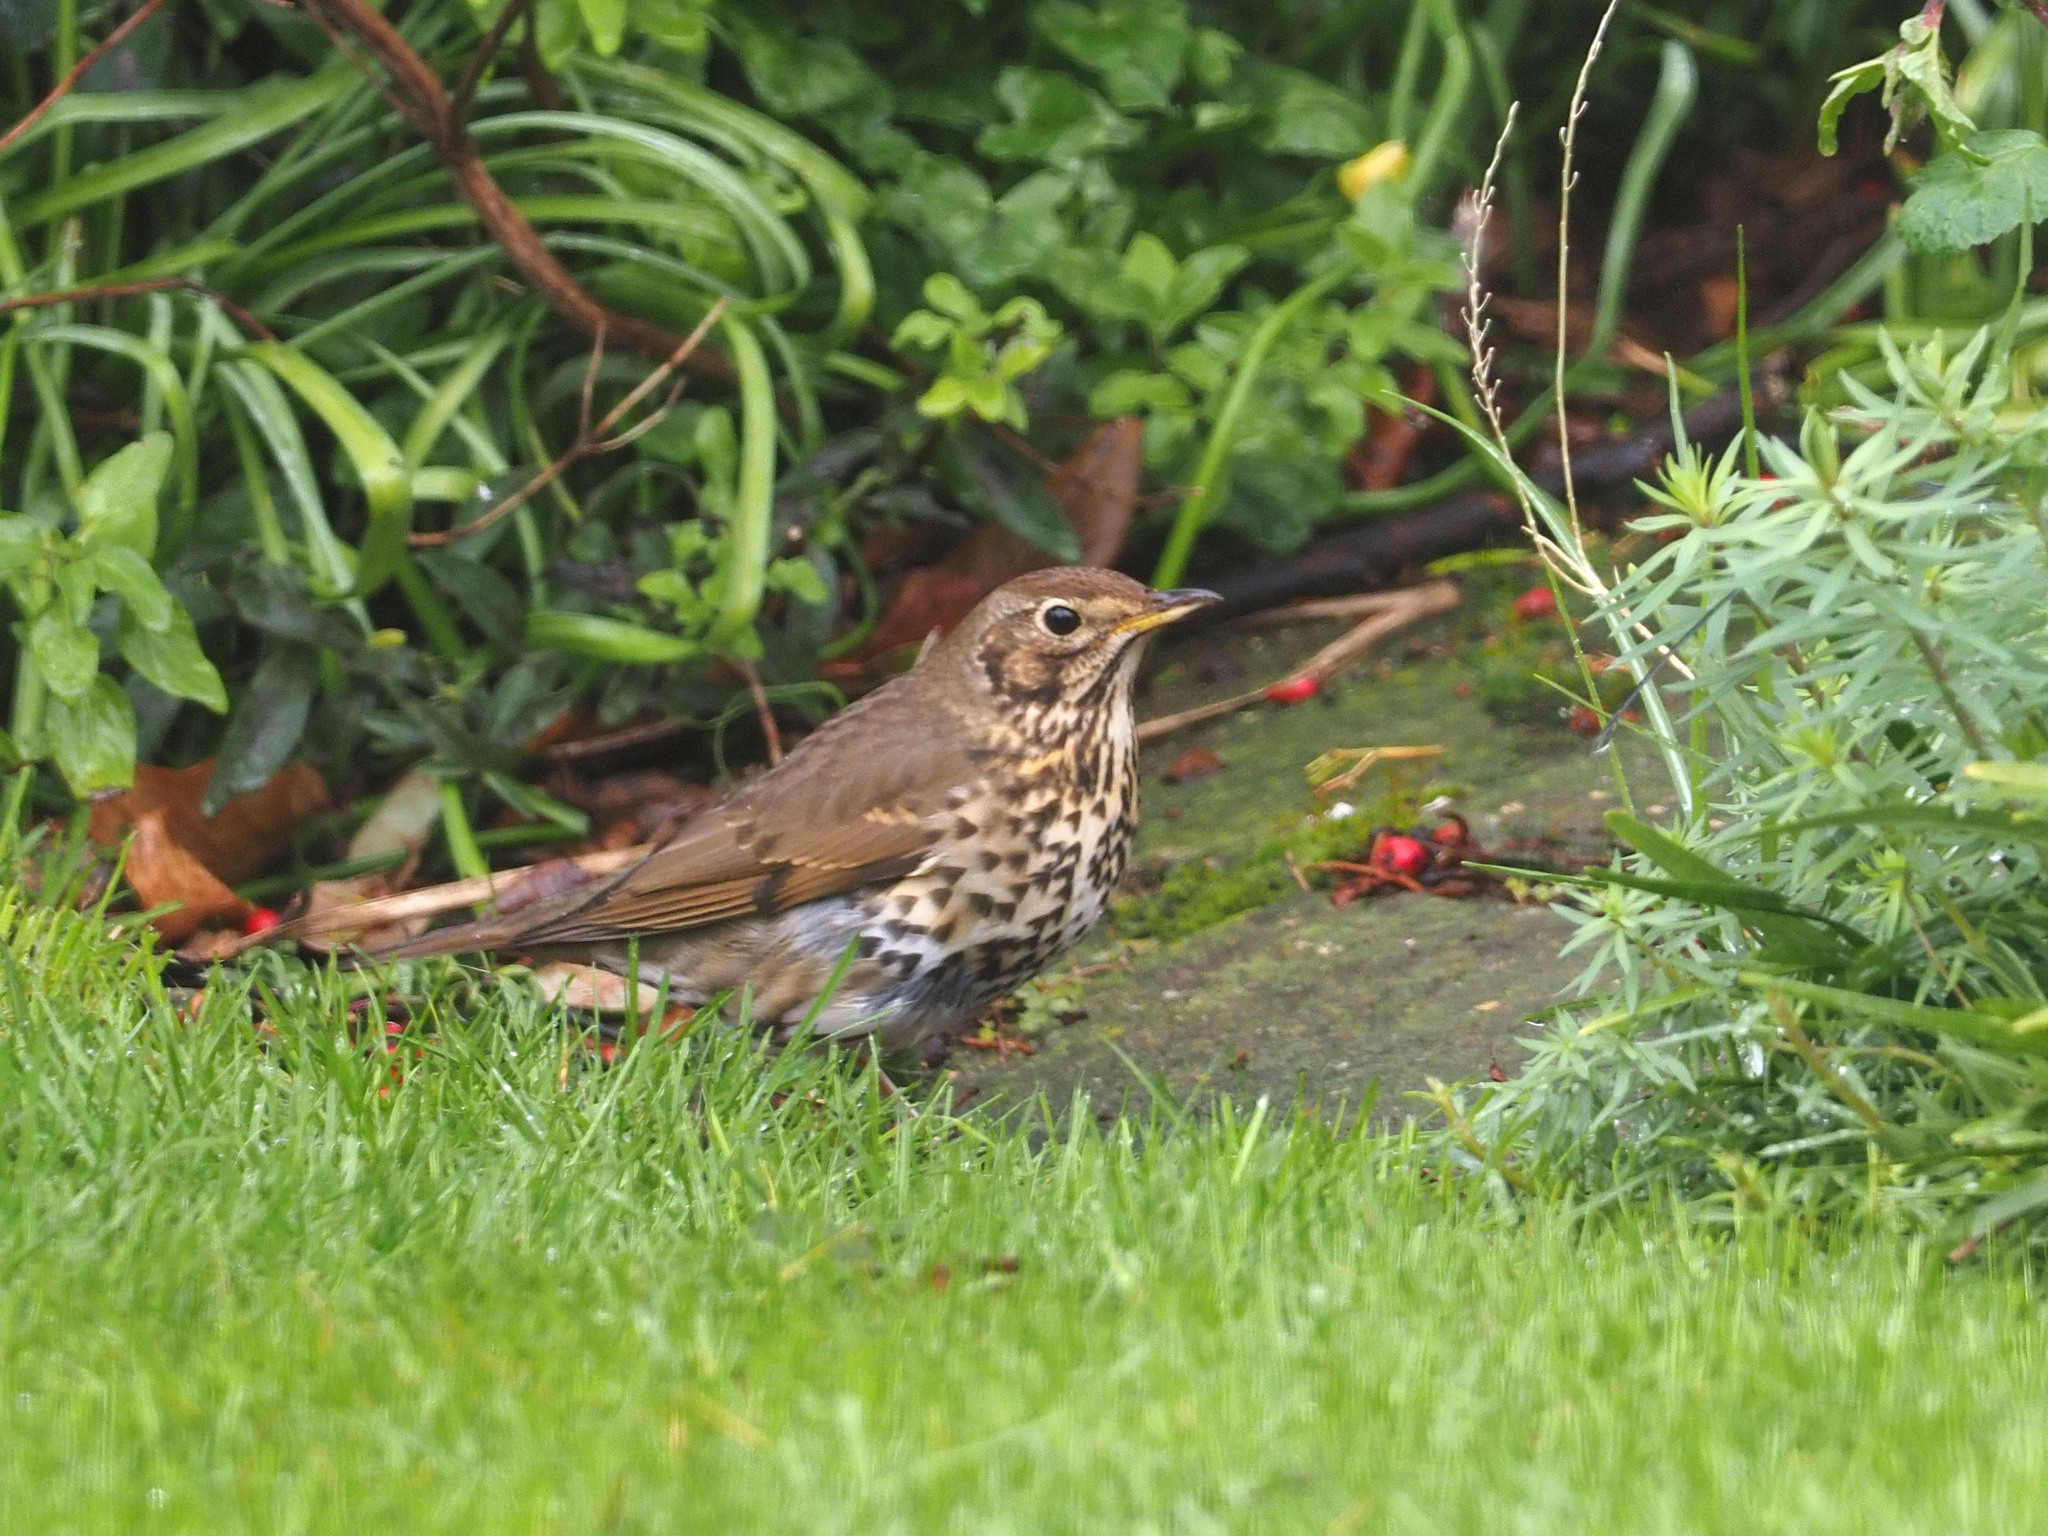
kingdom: Animalia
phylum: Chordata
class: Aves
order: Passeriformes
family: Turdidae
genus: Turdus
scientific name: Turdus philomelos
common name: Song thrush
